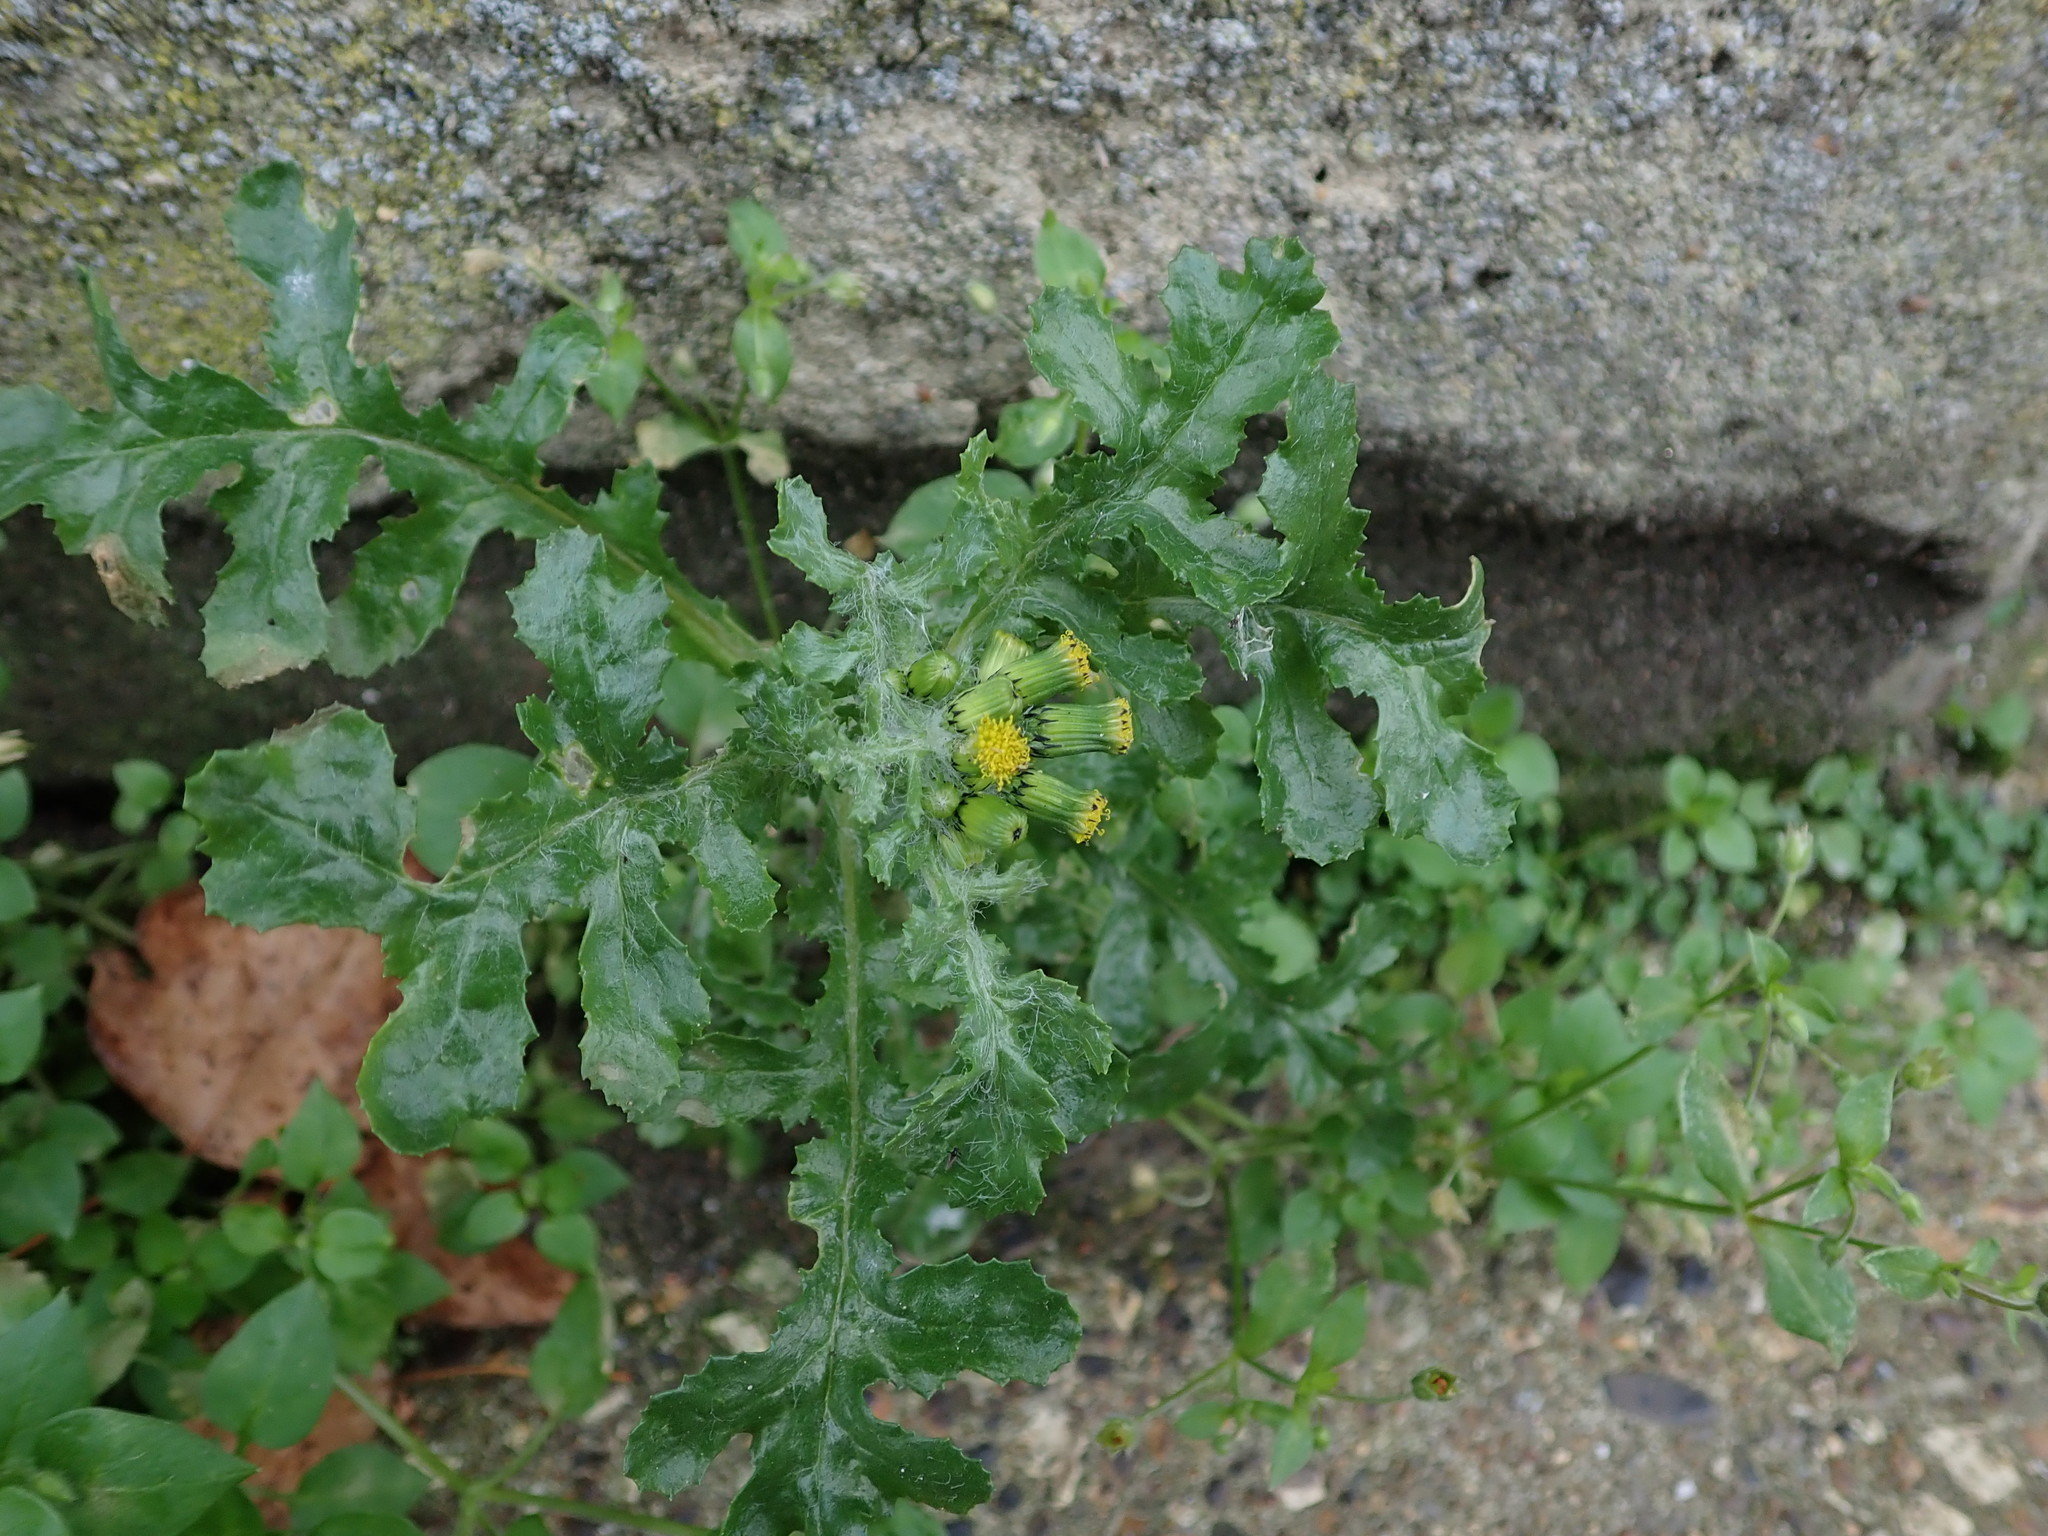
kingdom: Plantae
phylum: Tracheophyta
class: Magnoliopsida
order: Asterales
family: Asteraceae
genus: Senecio
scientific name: Senecio vulgaris
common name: Old-man-in-the-spring
